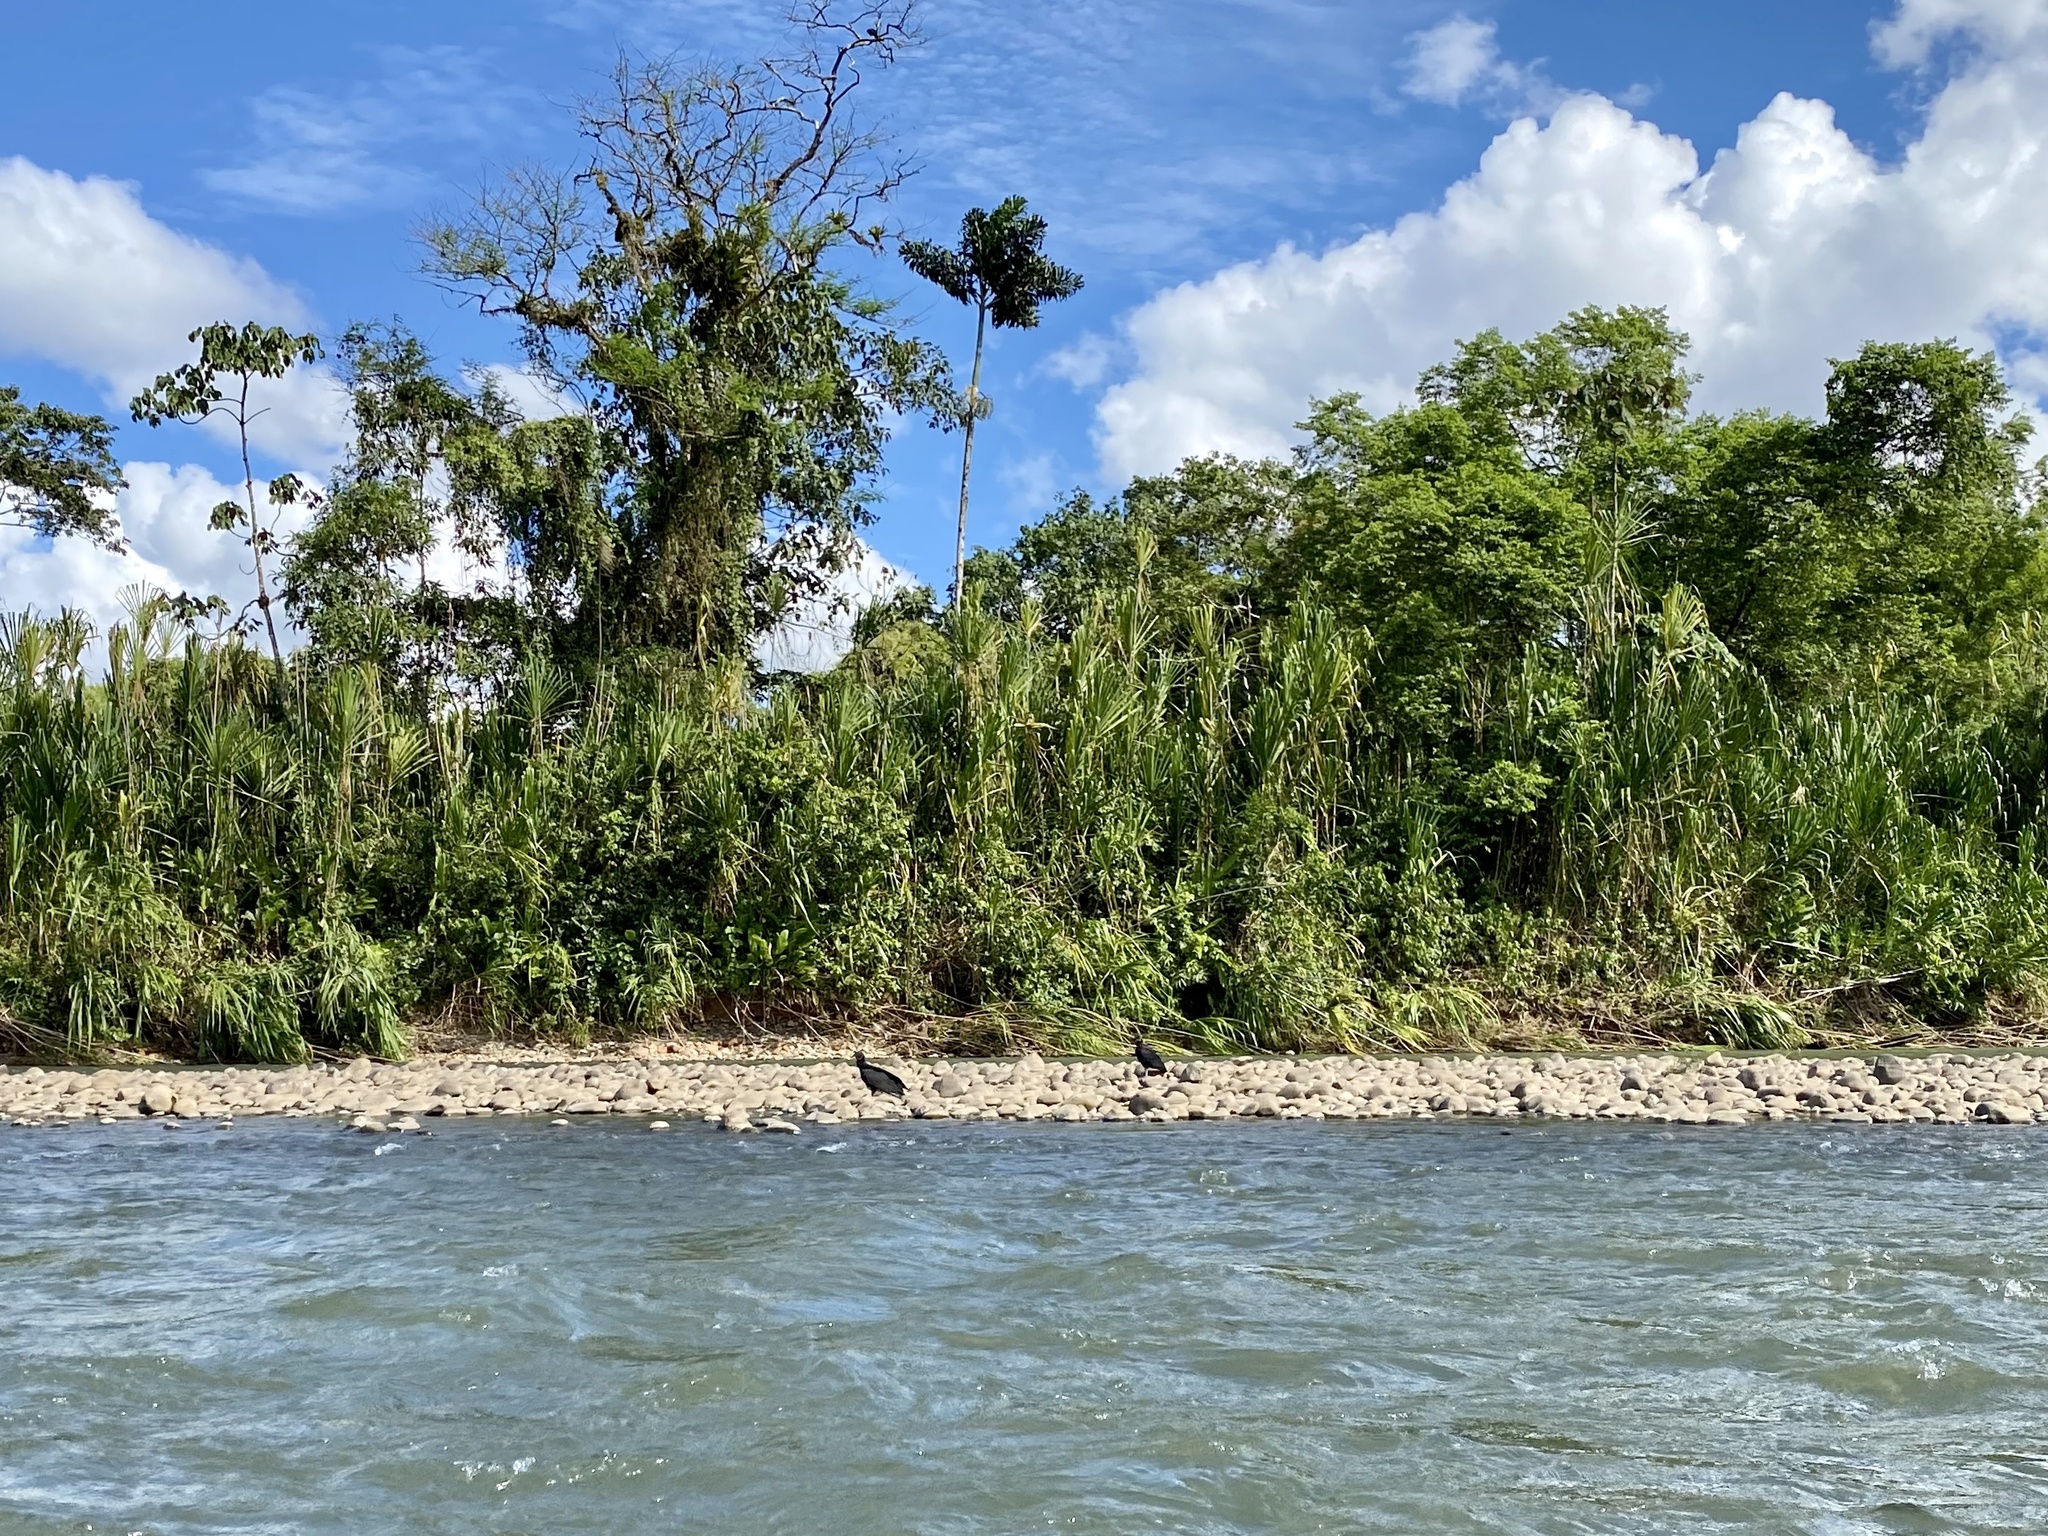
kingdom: Animalia
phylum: Chordata
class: Aves
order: Accipitriformes
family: Cathartidae
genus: Coragyps
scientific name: Coragyps atratus
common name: Black vulture
